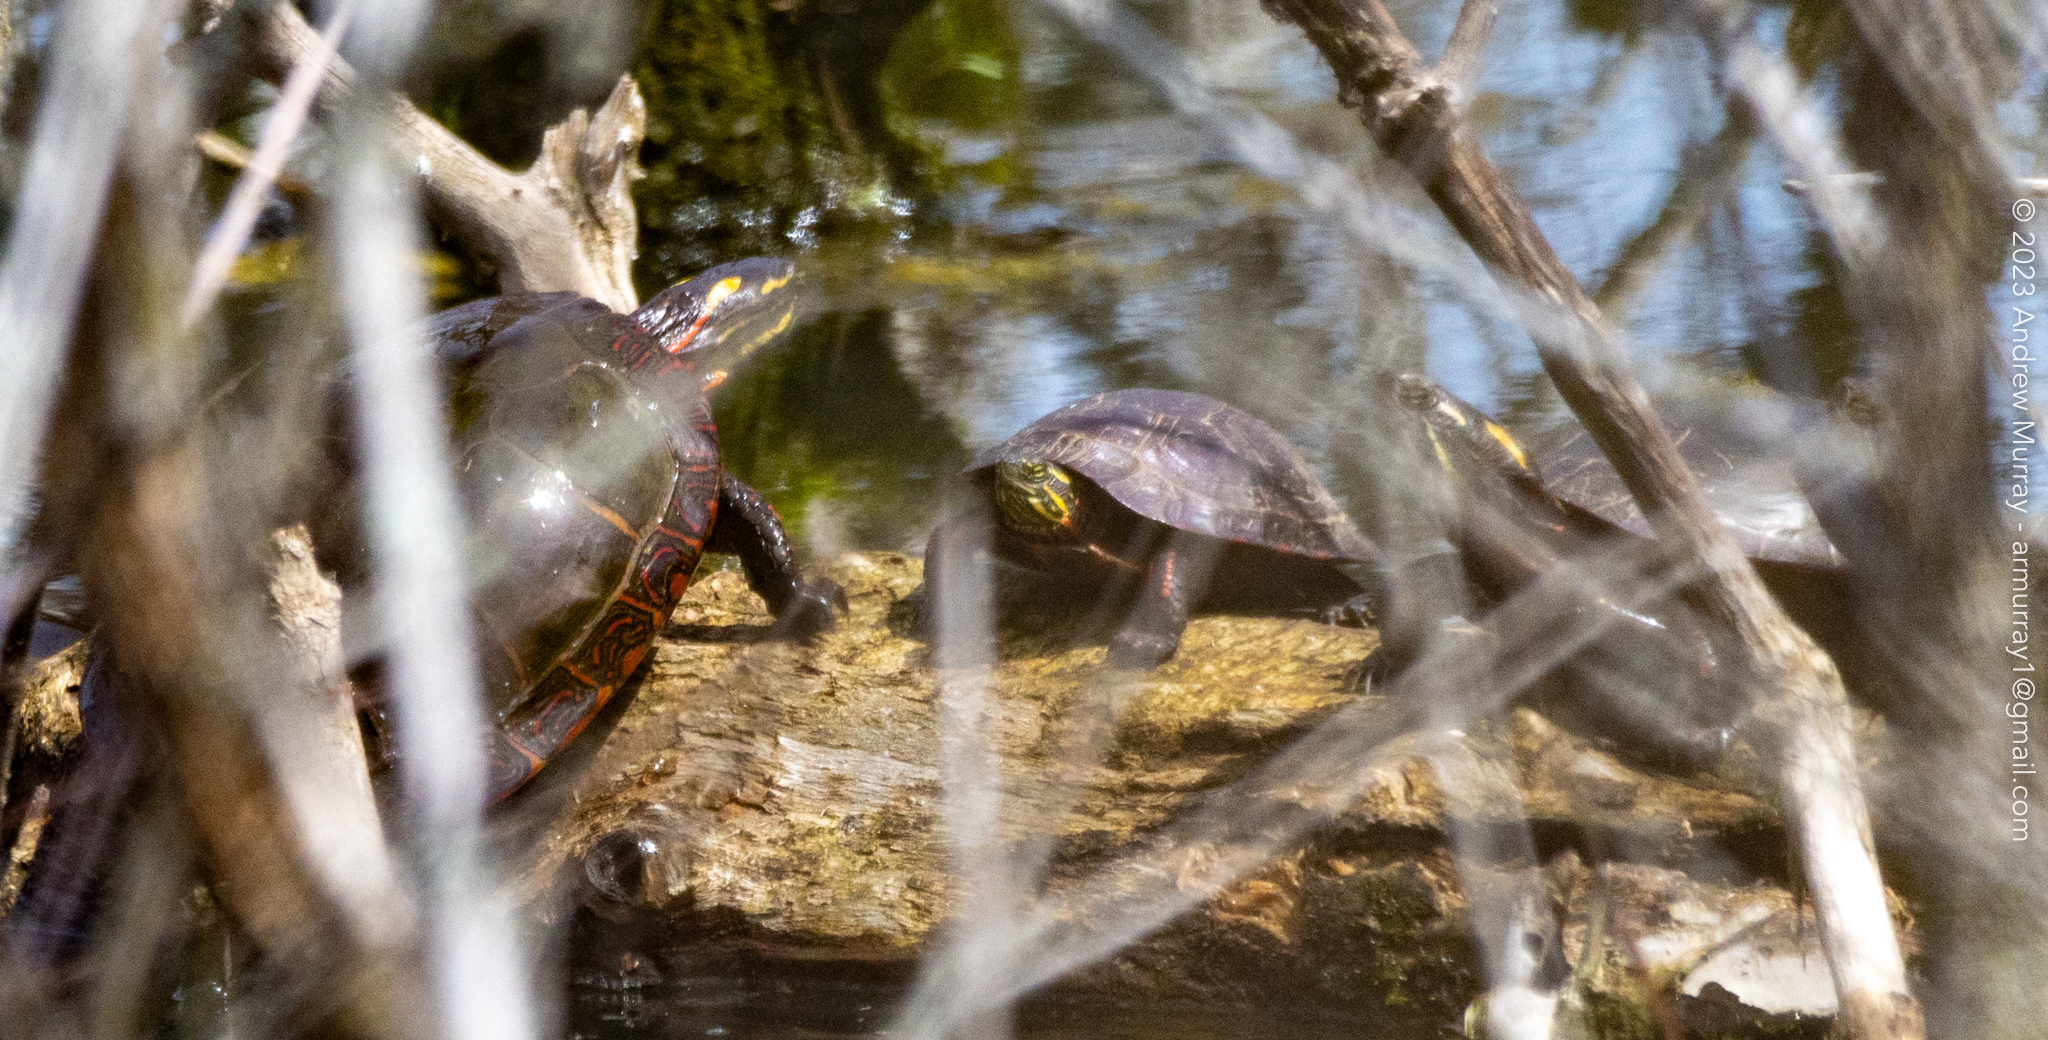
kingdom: Animalia
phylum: Chordata
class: Testudines
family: Emydidae
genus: Chrysemys
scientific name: Chrysemys picta
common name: Painted turtle
